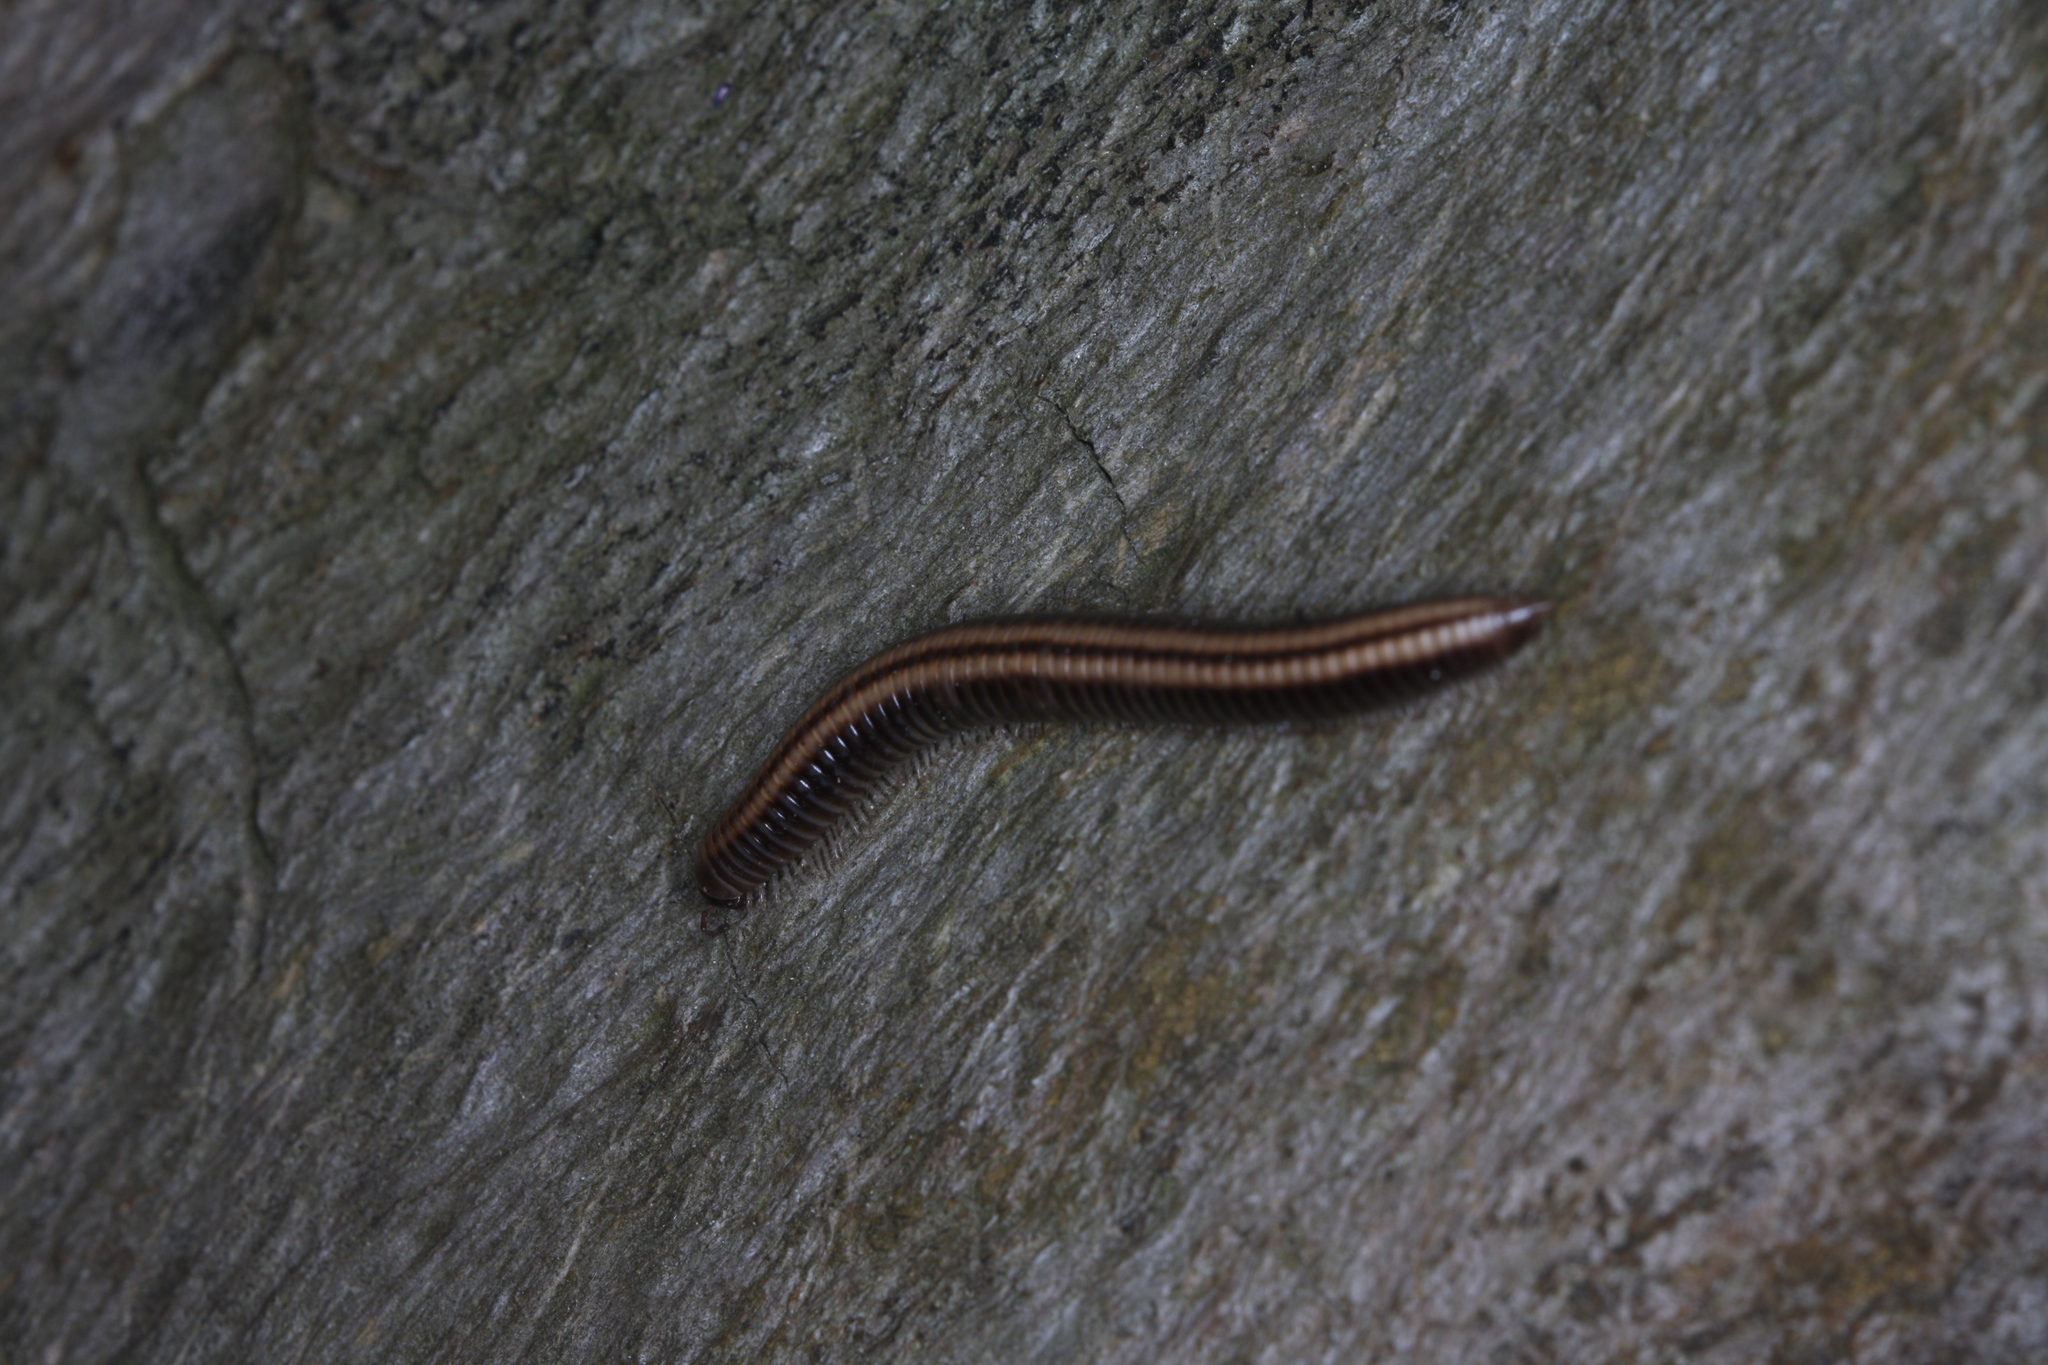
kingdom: Animalia
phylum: Arthropoda
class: Diplopoda
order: Julida
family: Julidae
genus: Ommatoiulus
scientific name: Ommatoiulus sabulosus
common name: Striped millipede
